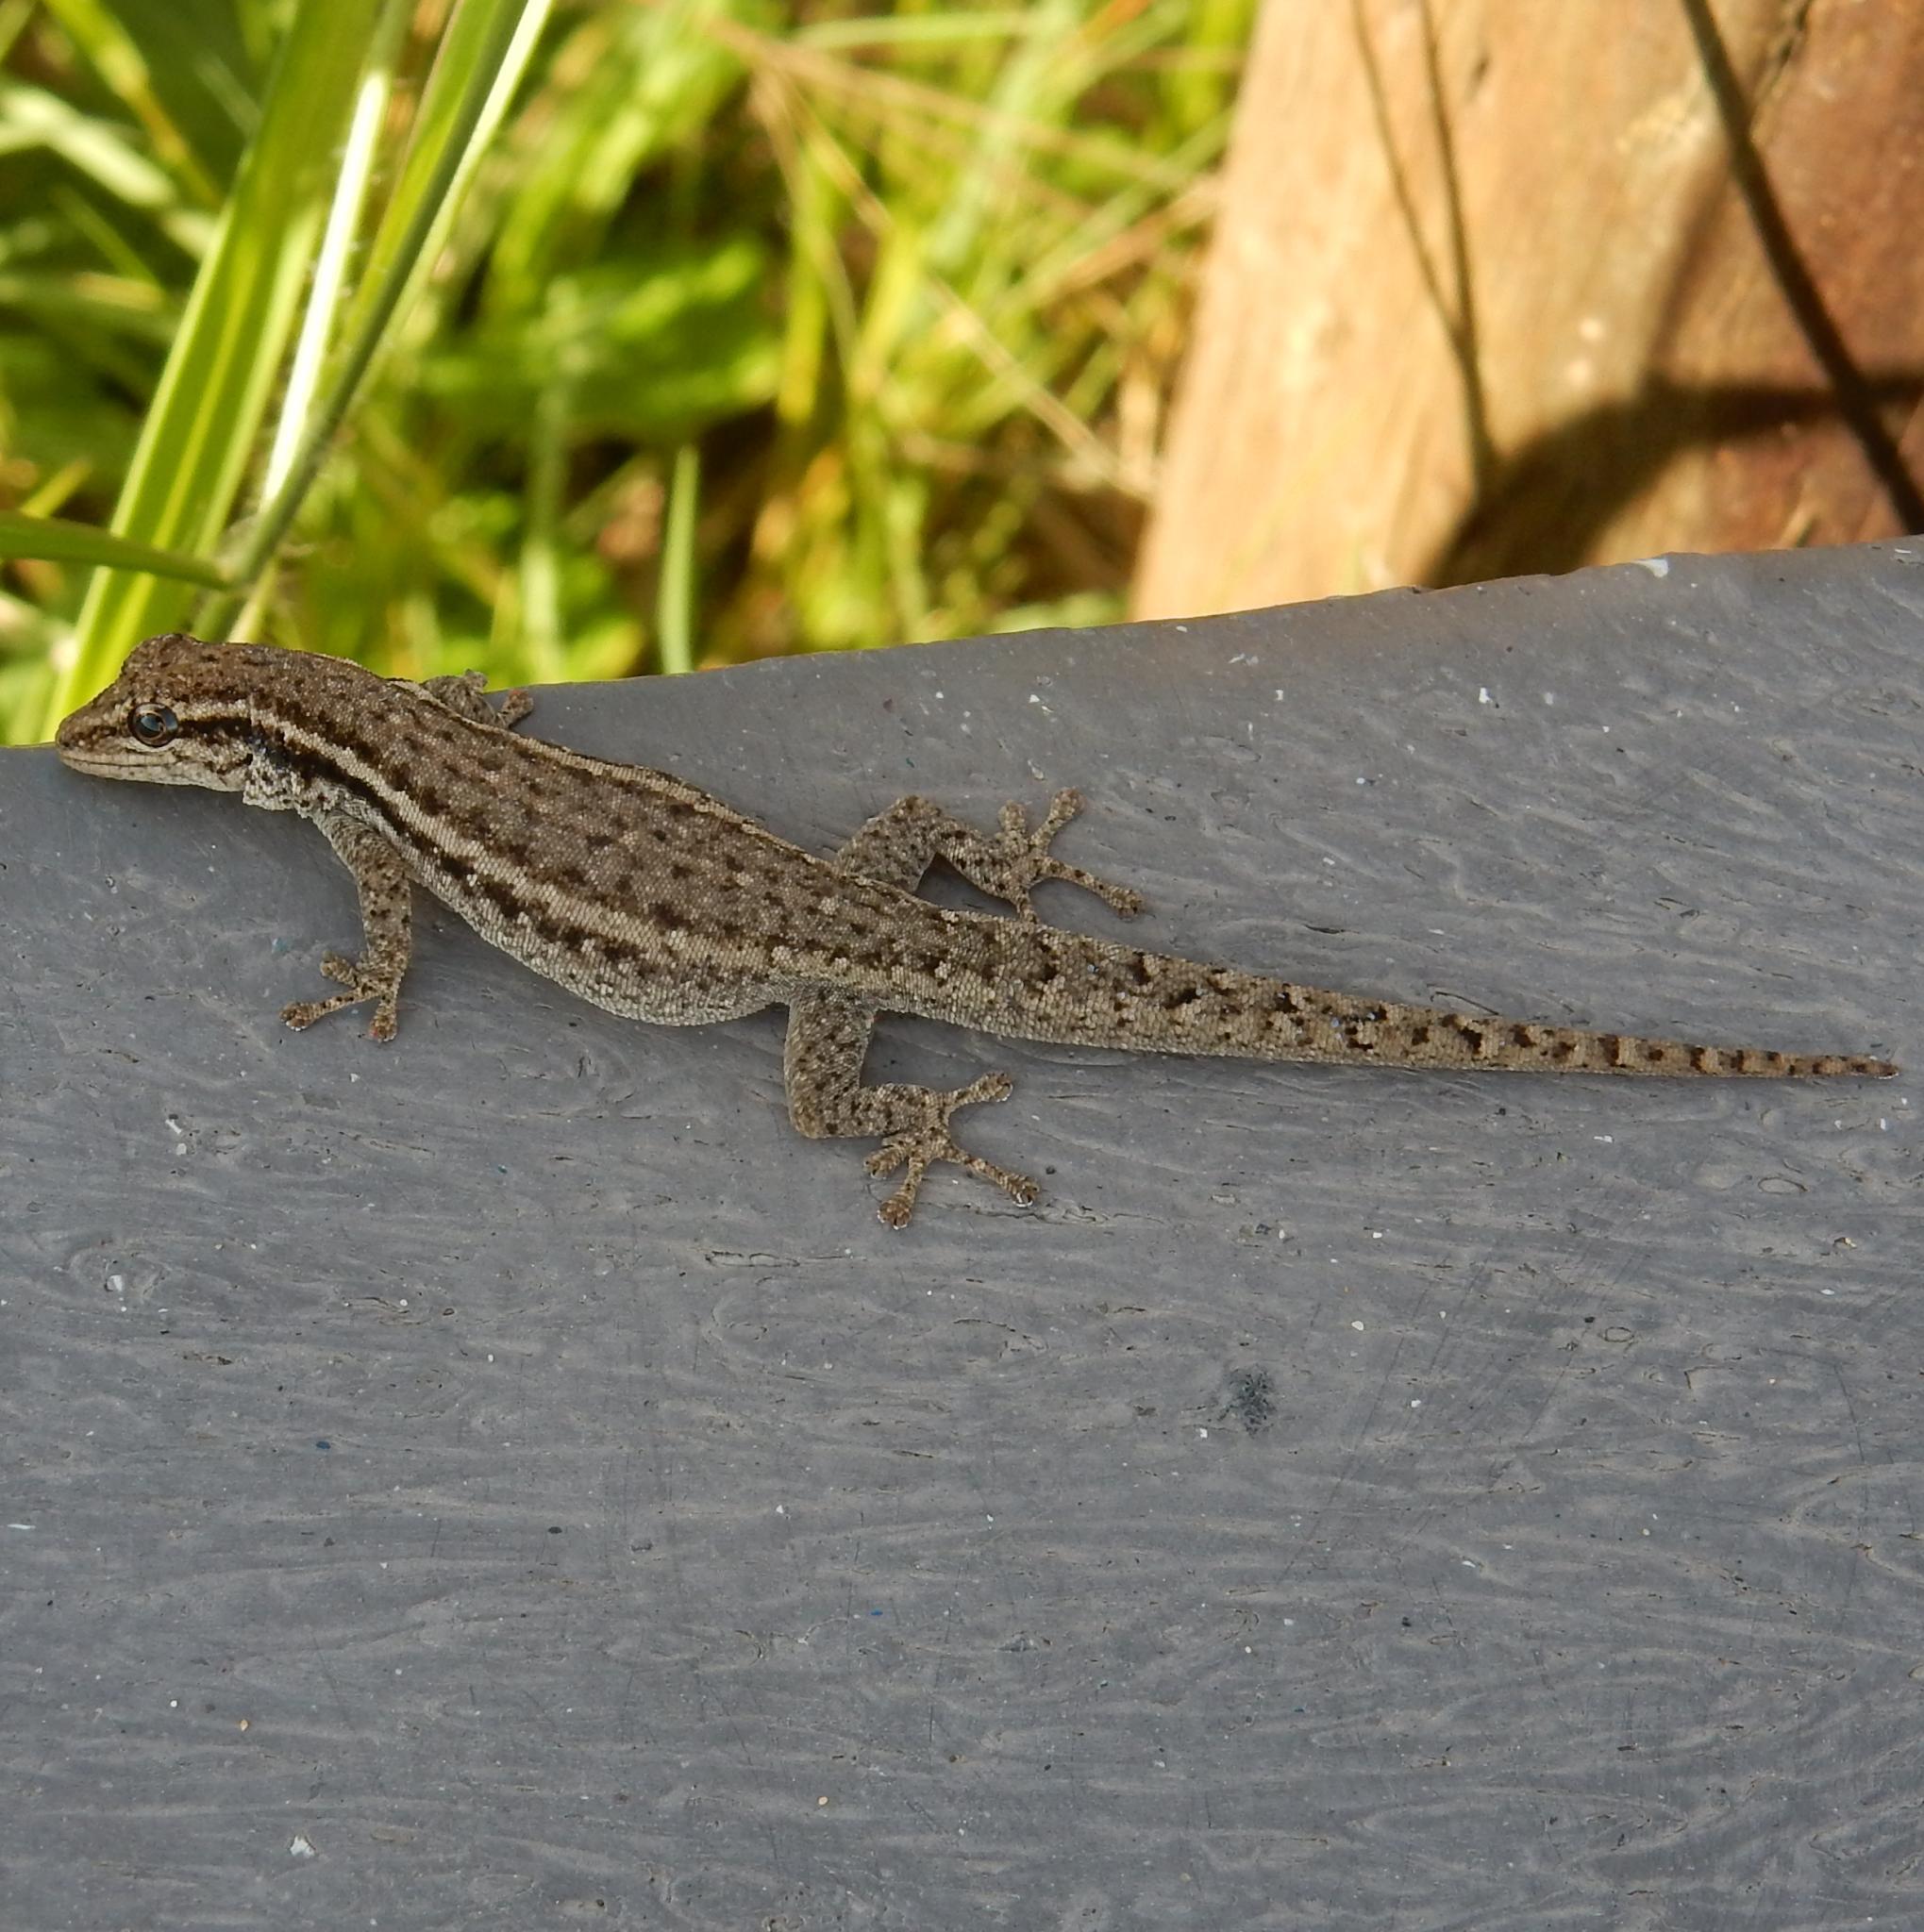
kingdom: Animalia
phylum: Chordata
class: Squamata
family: Gekkonidae
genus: Lygodactylus
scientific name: Lygodactylus capensis
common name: Cape dwarf gecko
